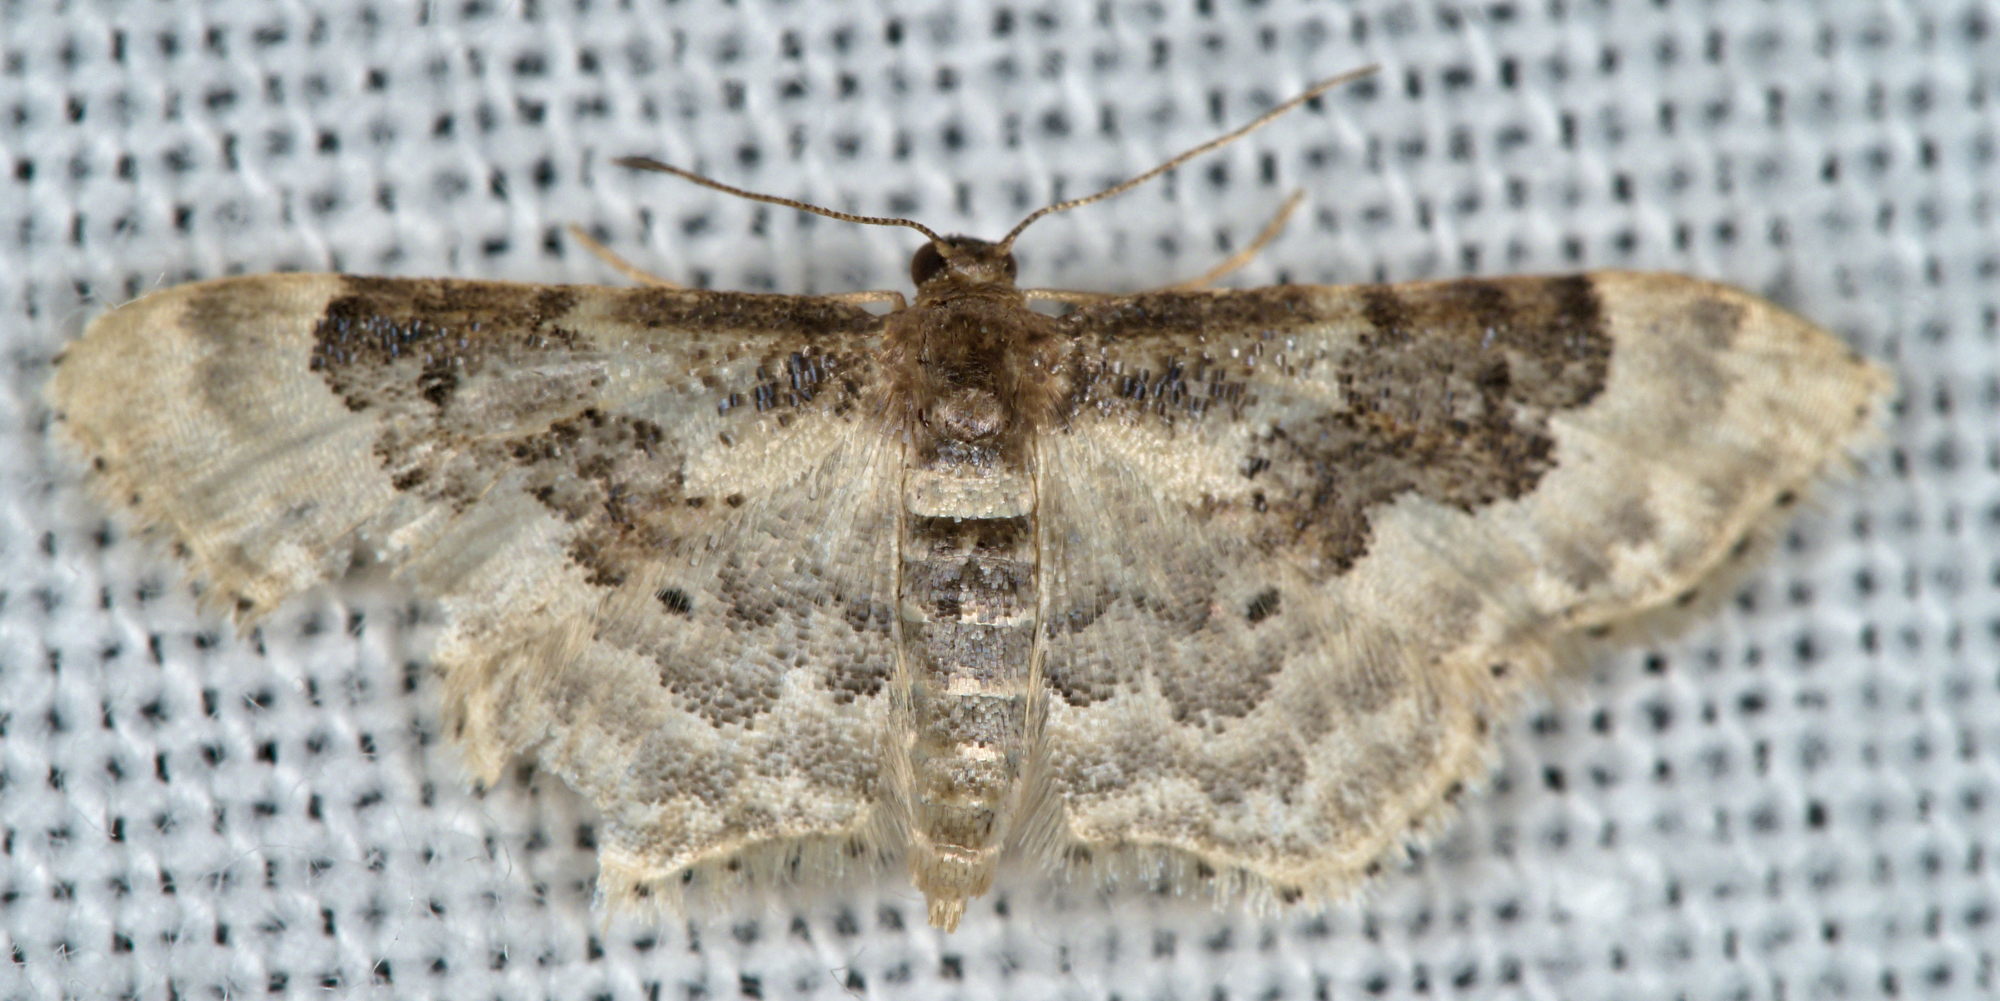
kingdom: Animalia
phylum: Arthropoda
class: Insecta
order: Lepidoptera
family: Geometridae
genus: Idaea
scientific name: Idaea rusticata
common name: Least carpet
